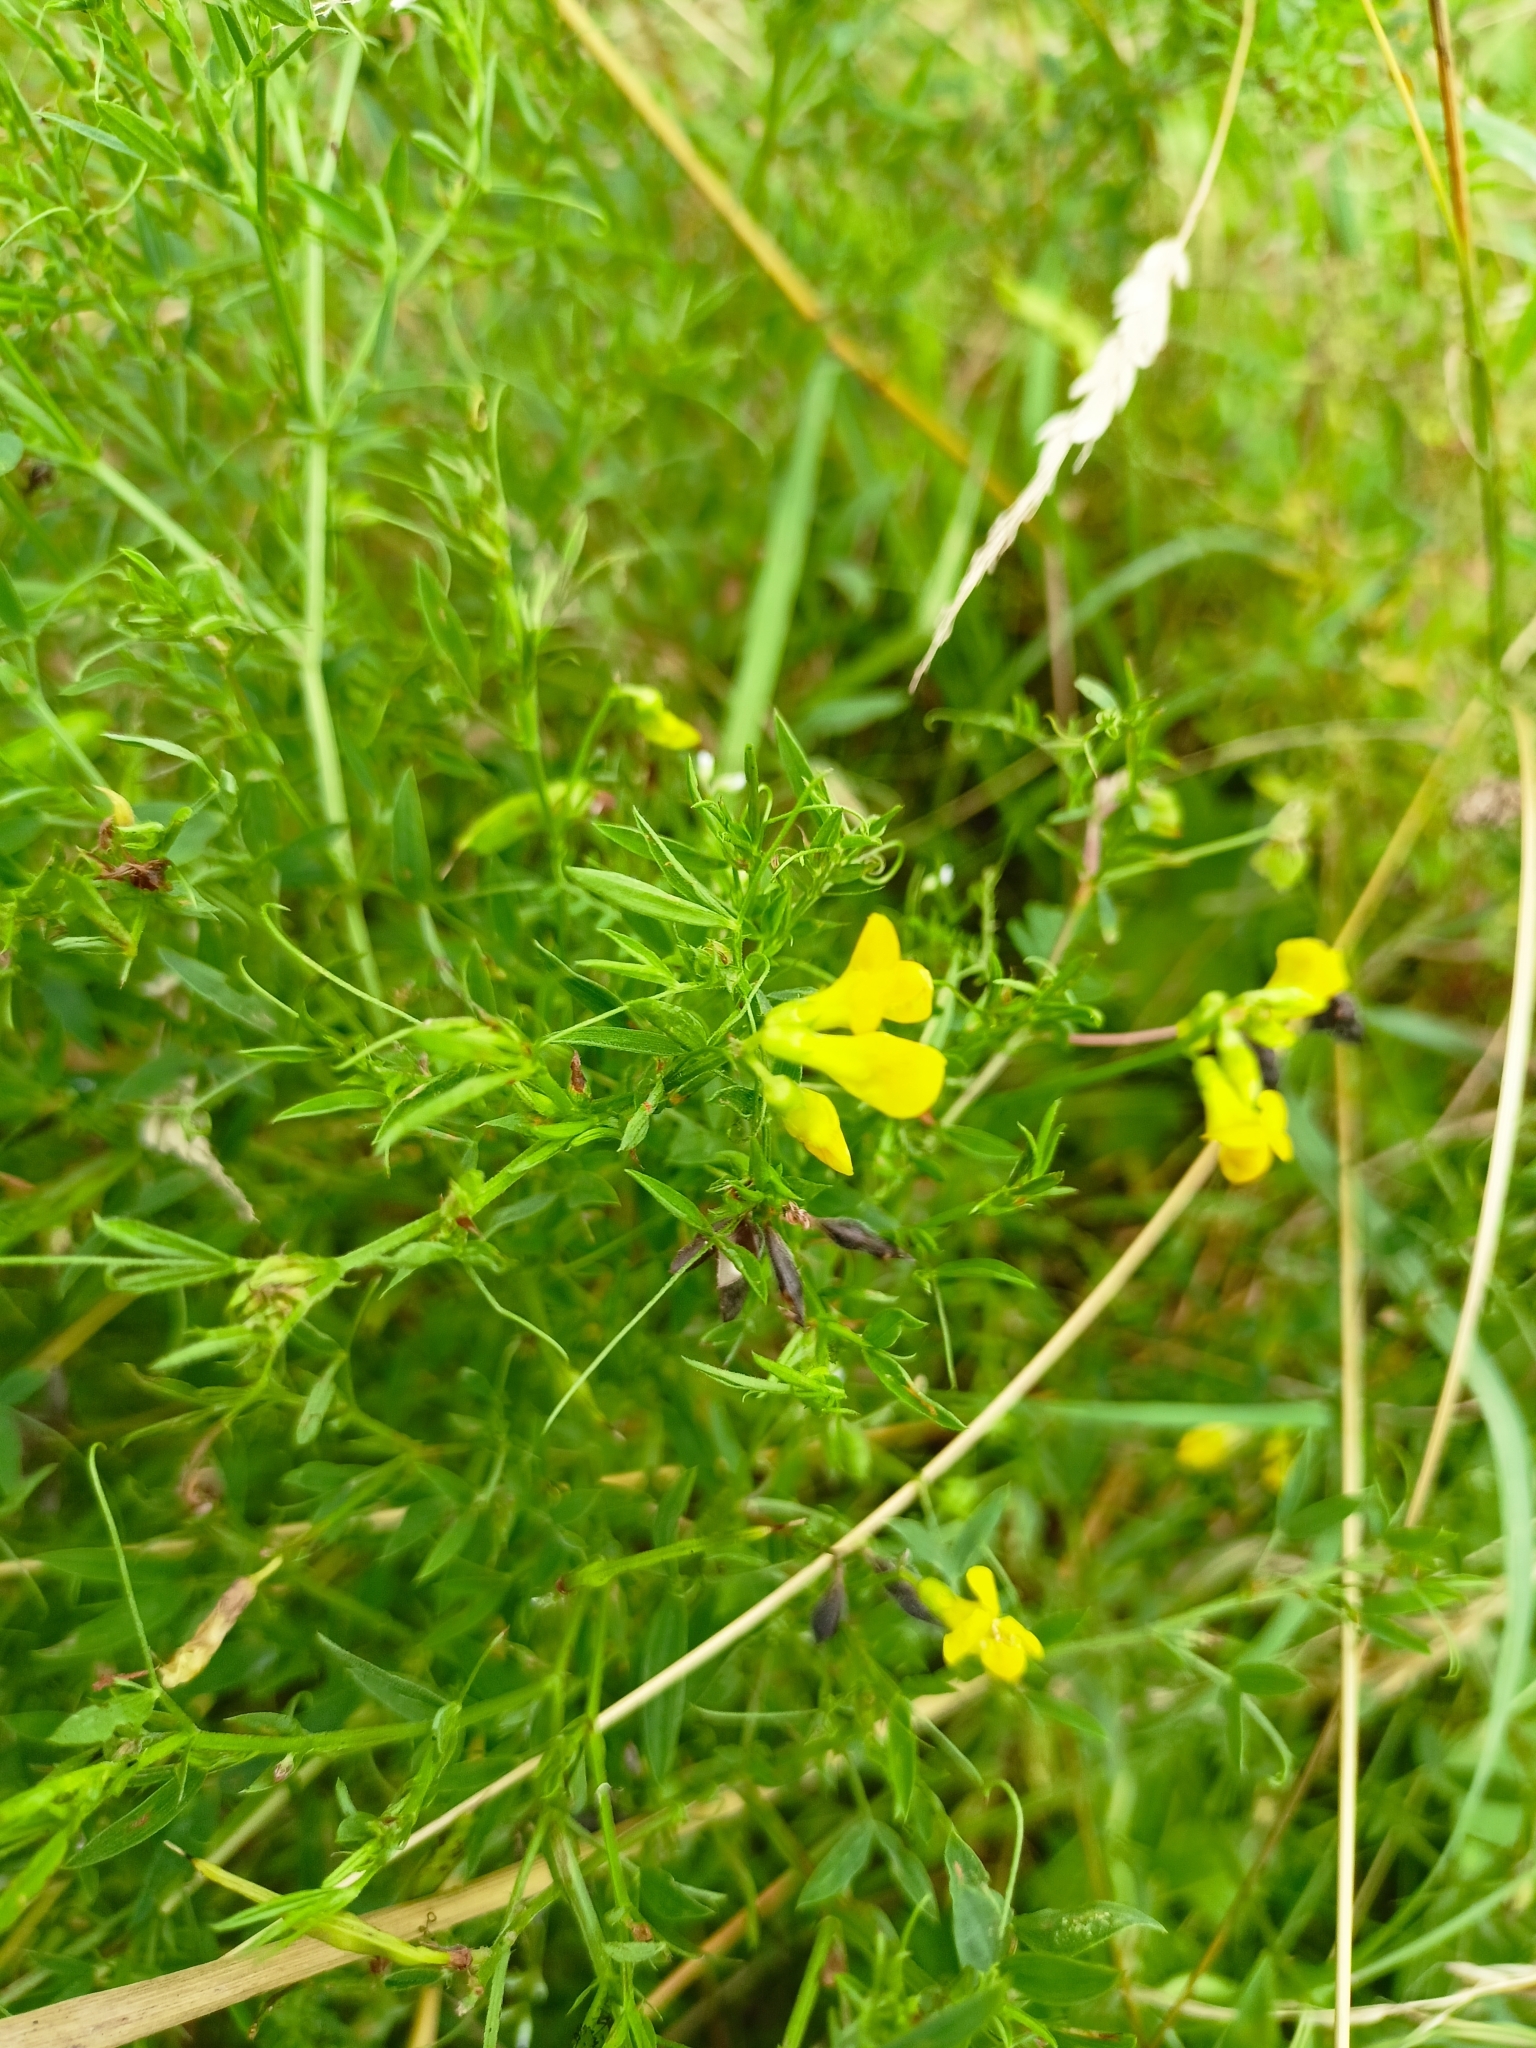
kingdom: Plantae
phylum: Tracheophyta
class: Magnoliopsida
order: Fabales
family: Fabaceae
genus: Lathyrus
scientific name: Lathyrus pratensis
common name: Meadow vetchling
